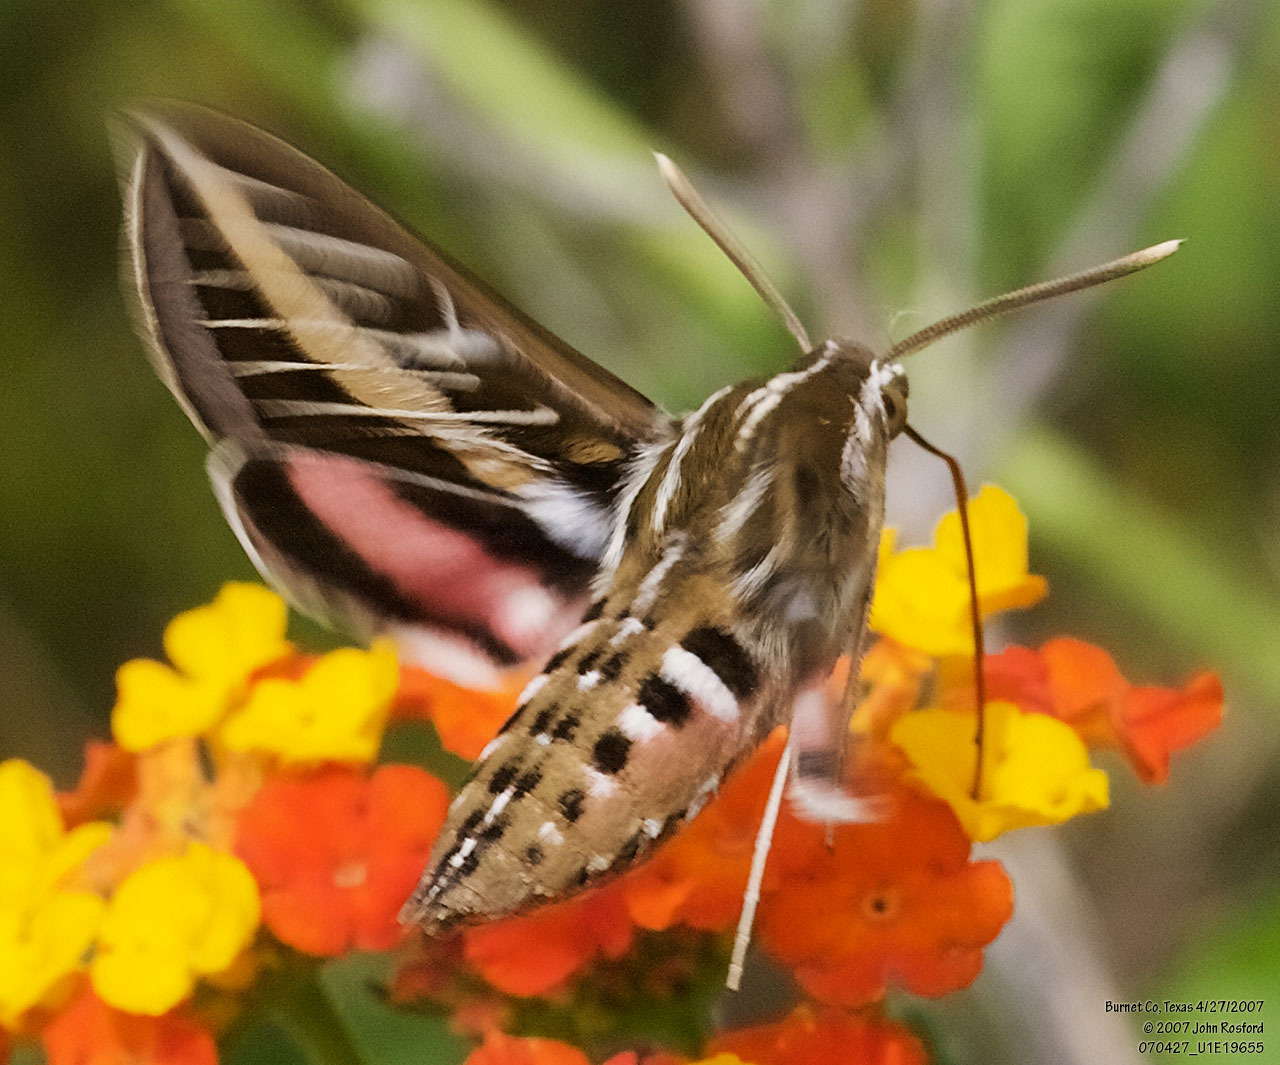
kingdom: Animalia
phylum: Arthropoda
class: Insecta
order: Lepidoptera
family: Sphingidae
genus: Hyles
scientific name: Hyles lineata
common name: White-lined sphinx
